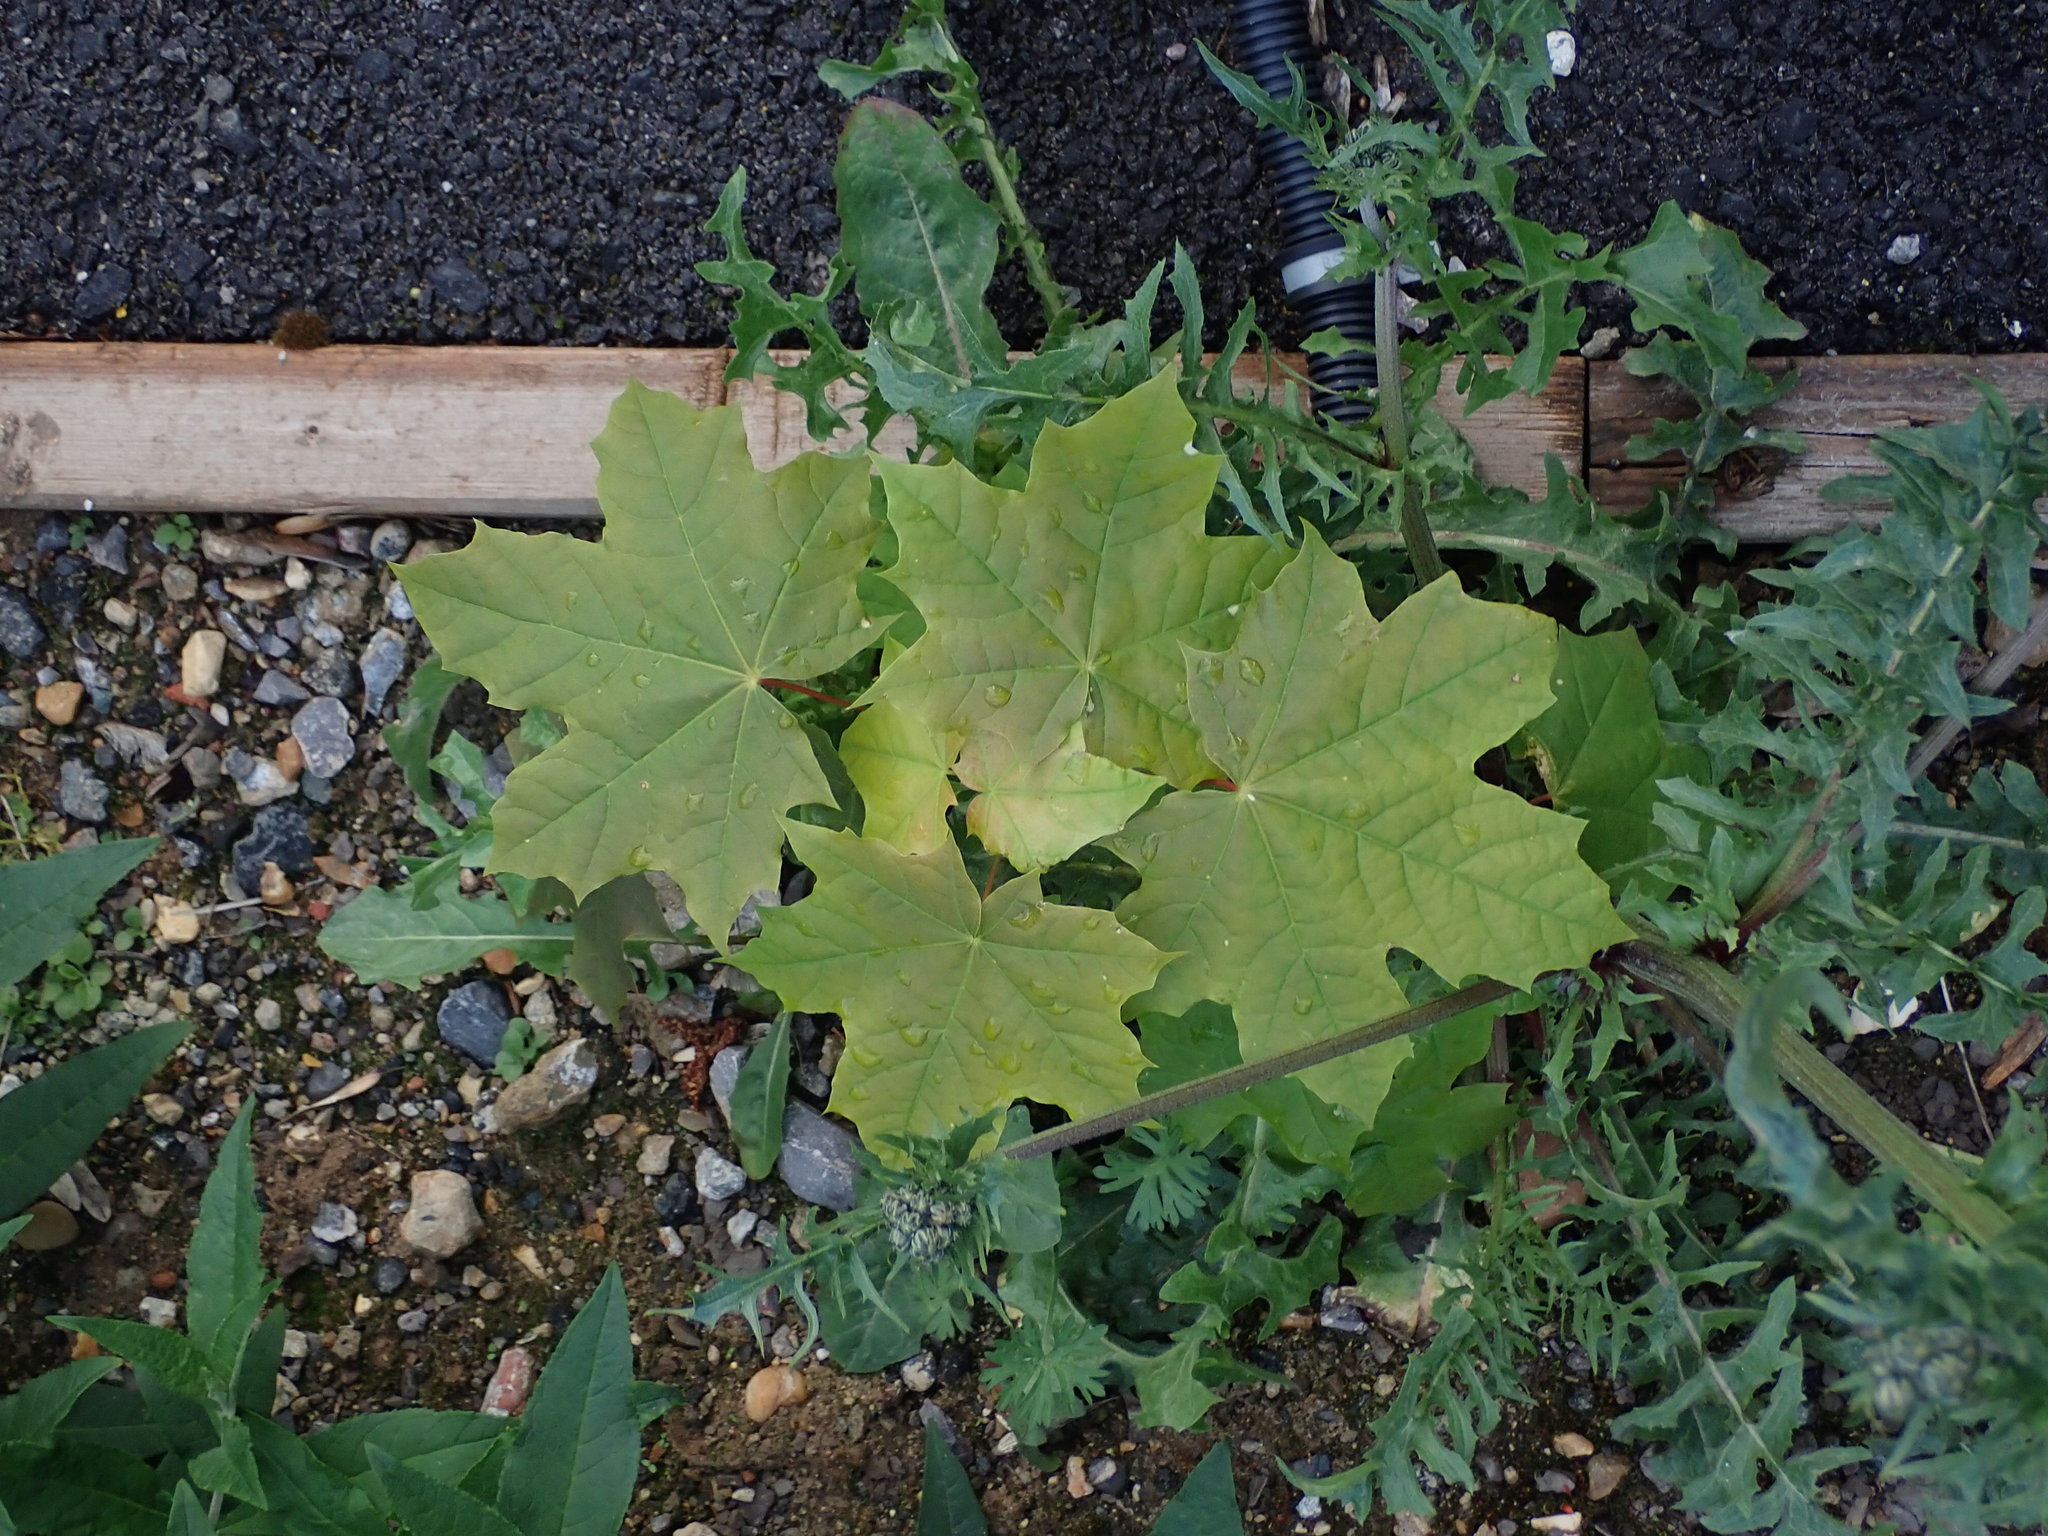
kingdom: Plantae
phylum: Tracheophyta
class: Magnoliopsida
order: Sapindales
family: Sapindaceae
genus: Acer
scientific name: Acer platanoides
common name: Norway maple
